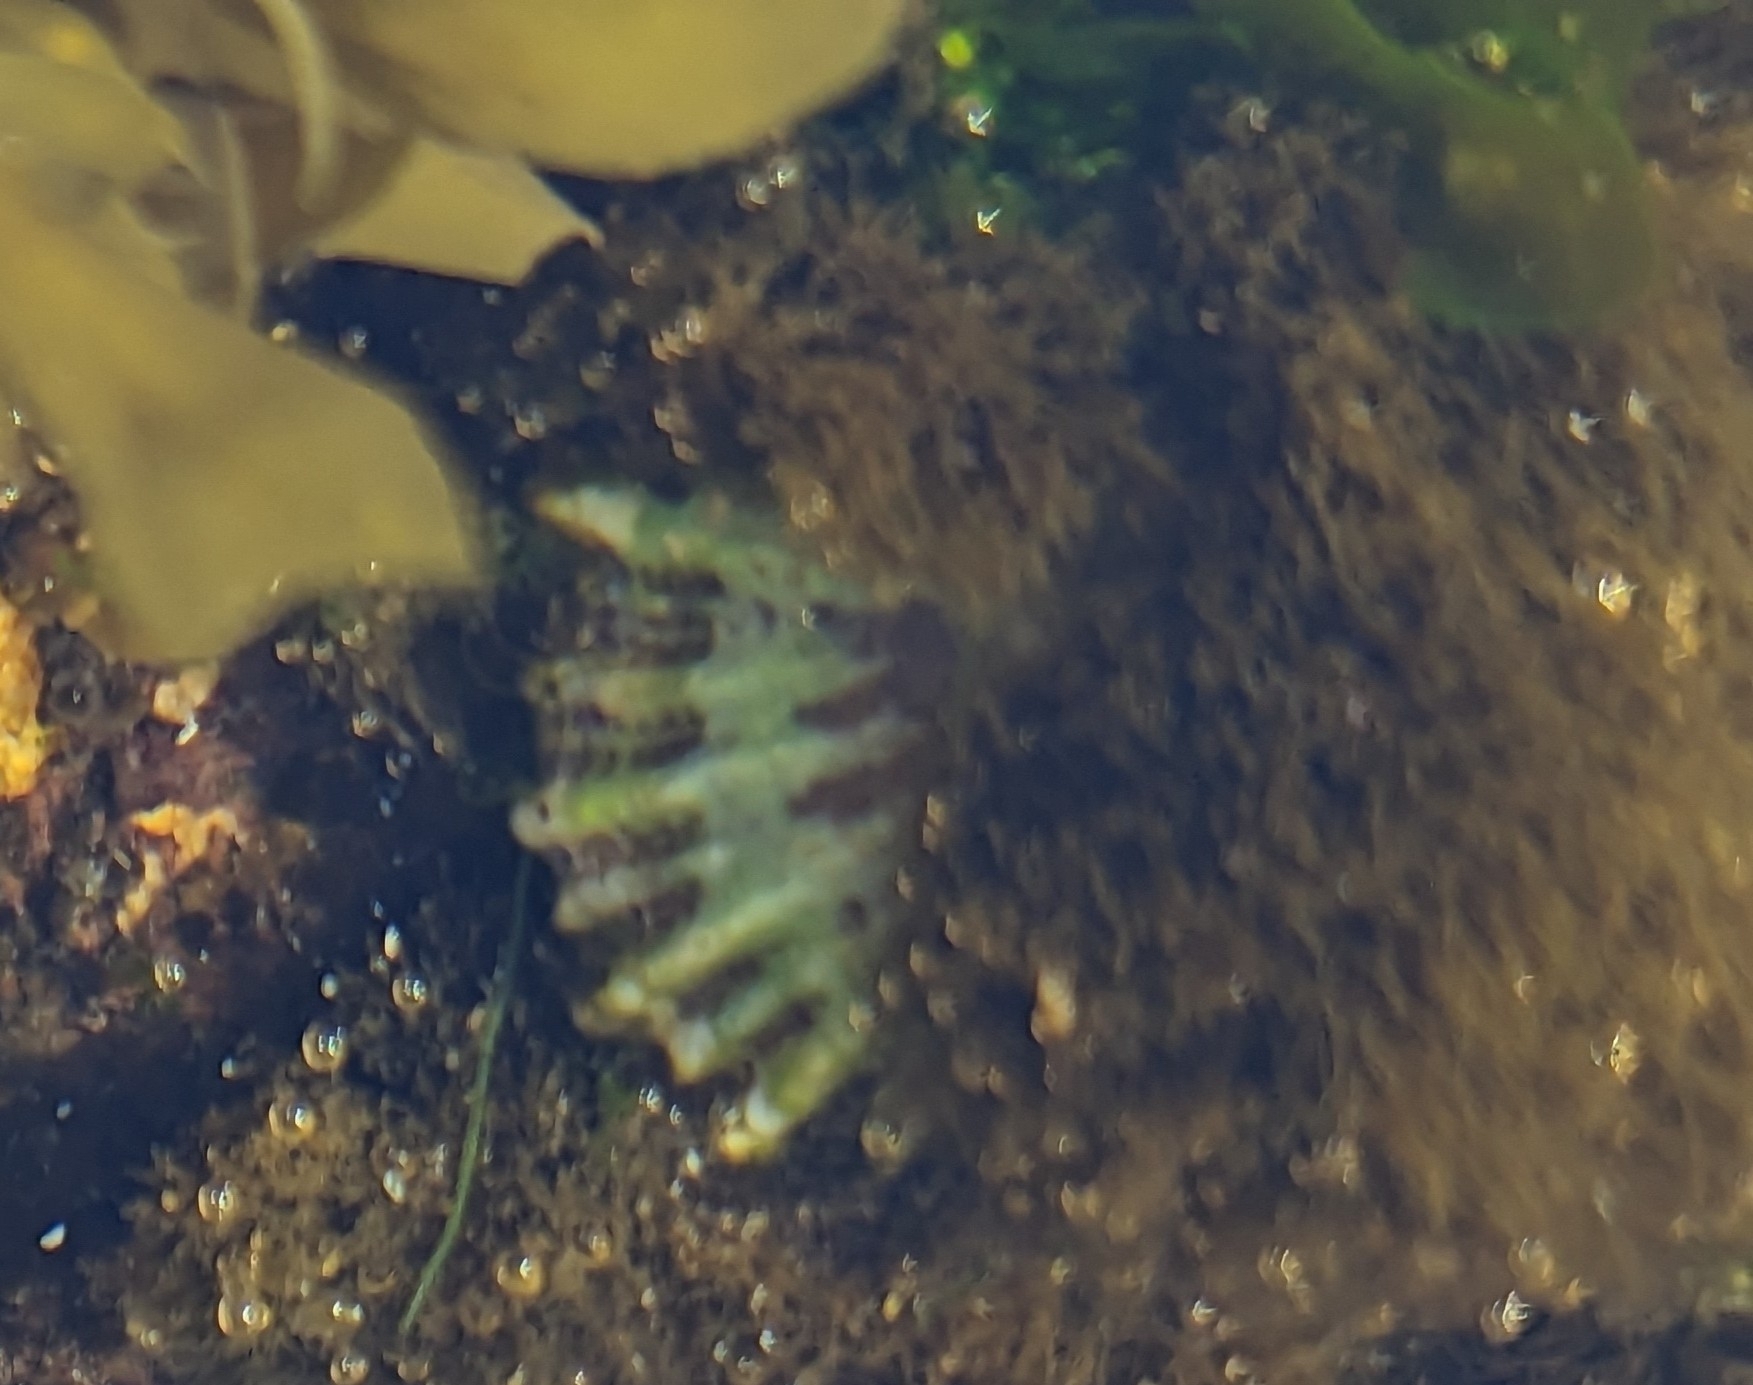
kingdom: Animalia
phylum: Mollusca
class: Gastropoda
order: Siphonariida
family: Siphonariidae
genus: Siphonaria
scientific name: Siphonaria denticulata
